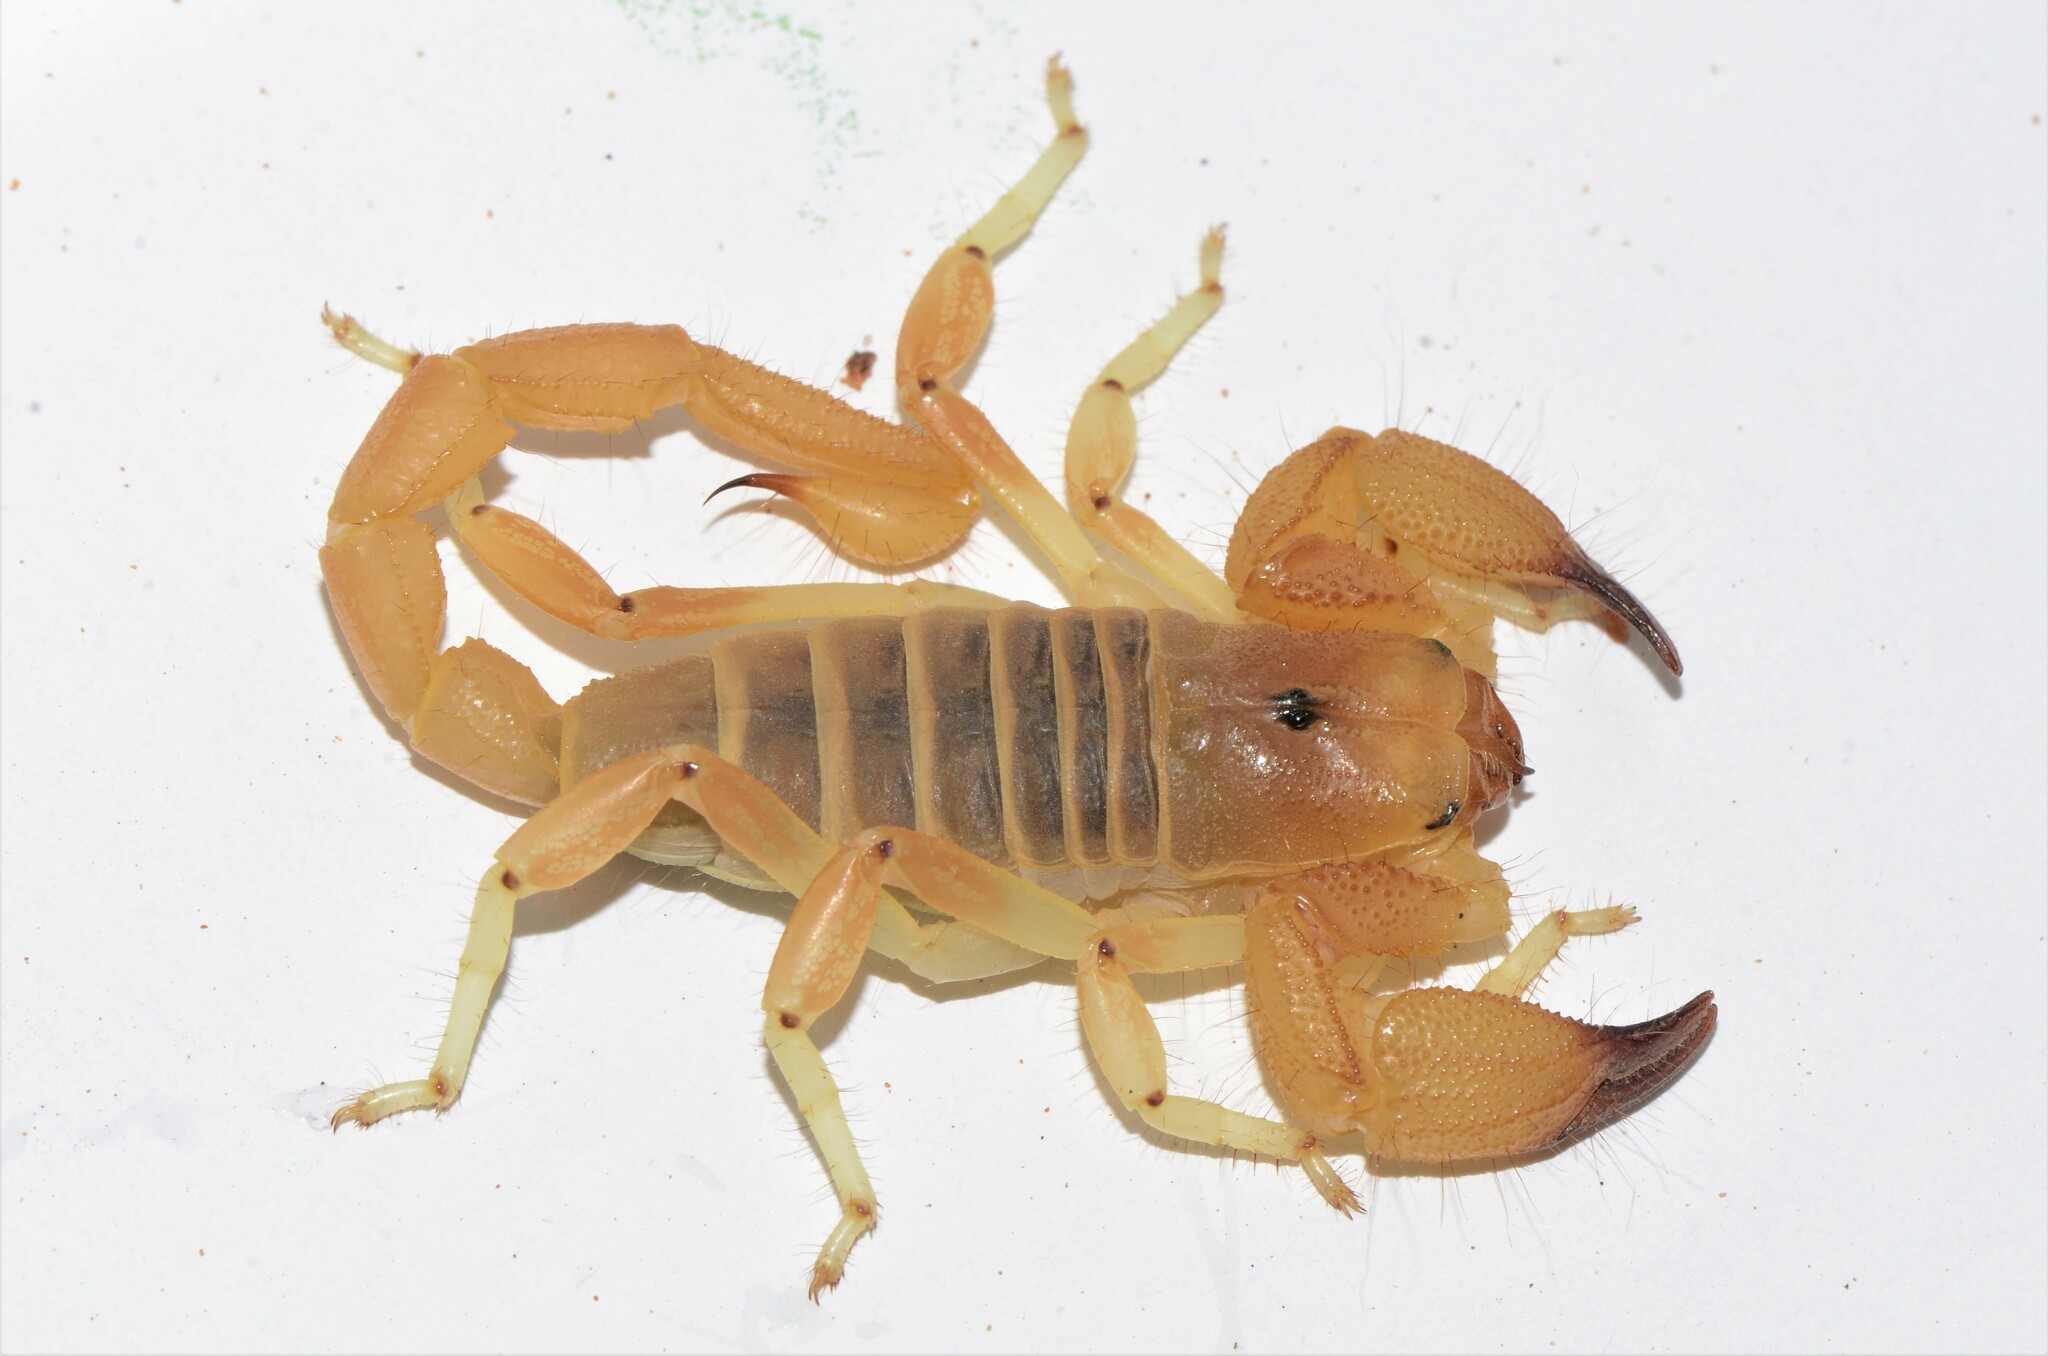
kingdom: Animalia
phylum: Arthropoda
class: Arachnida
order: Scorpiones
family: Scorpionidae
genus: Opistophthalmus
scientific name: Opistophthalmus lornae
